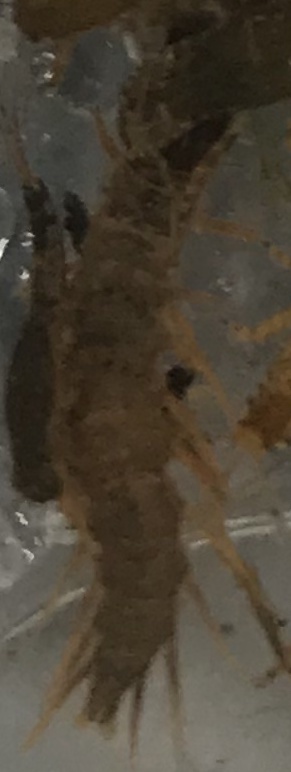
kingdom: Animalia
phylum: Arthropoda
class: Insecta
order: Megaloptera
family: Corydalidae
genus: Nigronia
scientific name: Nigronia
